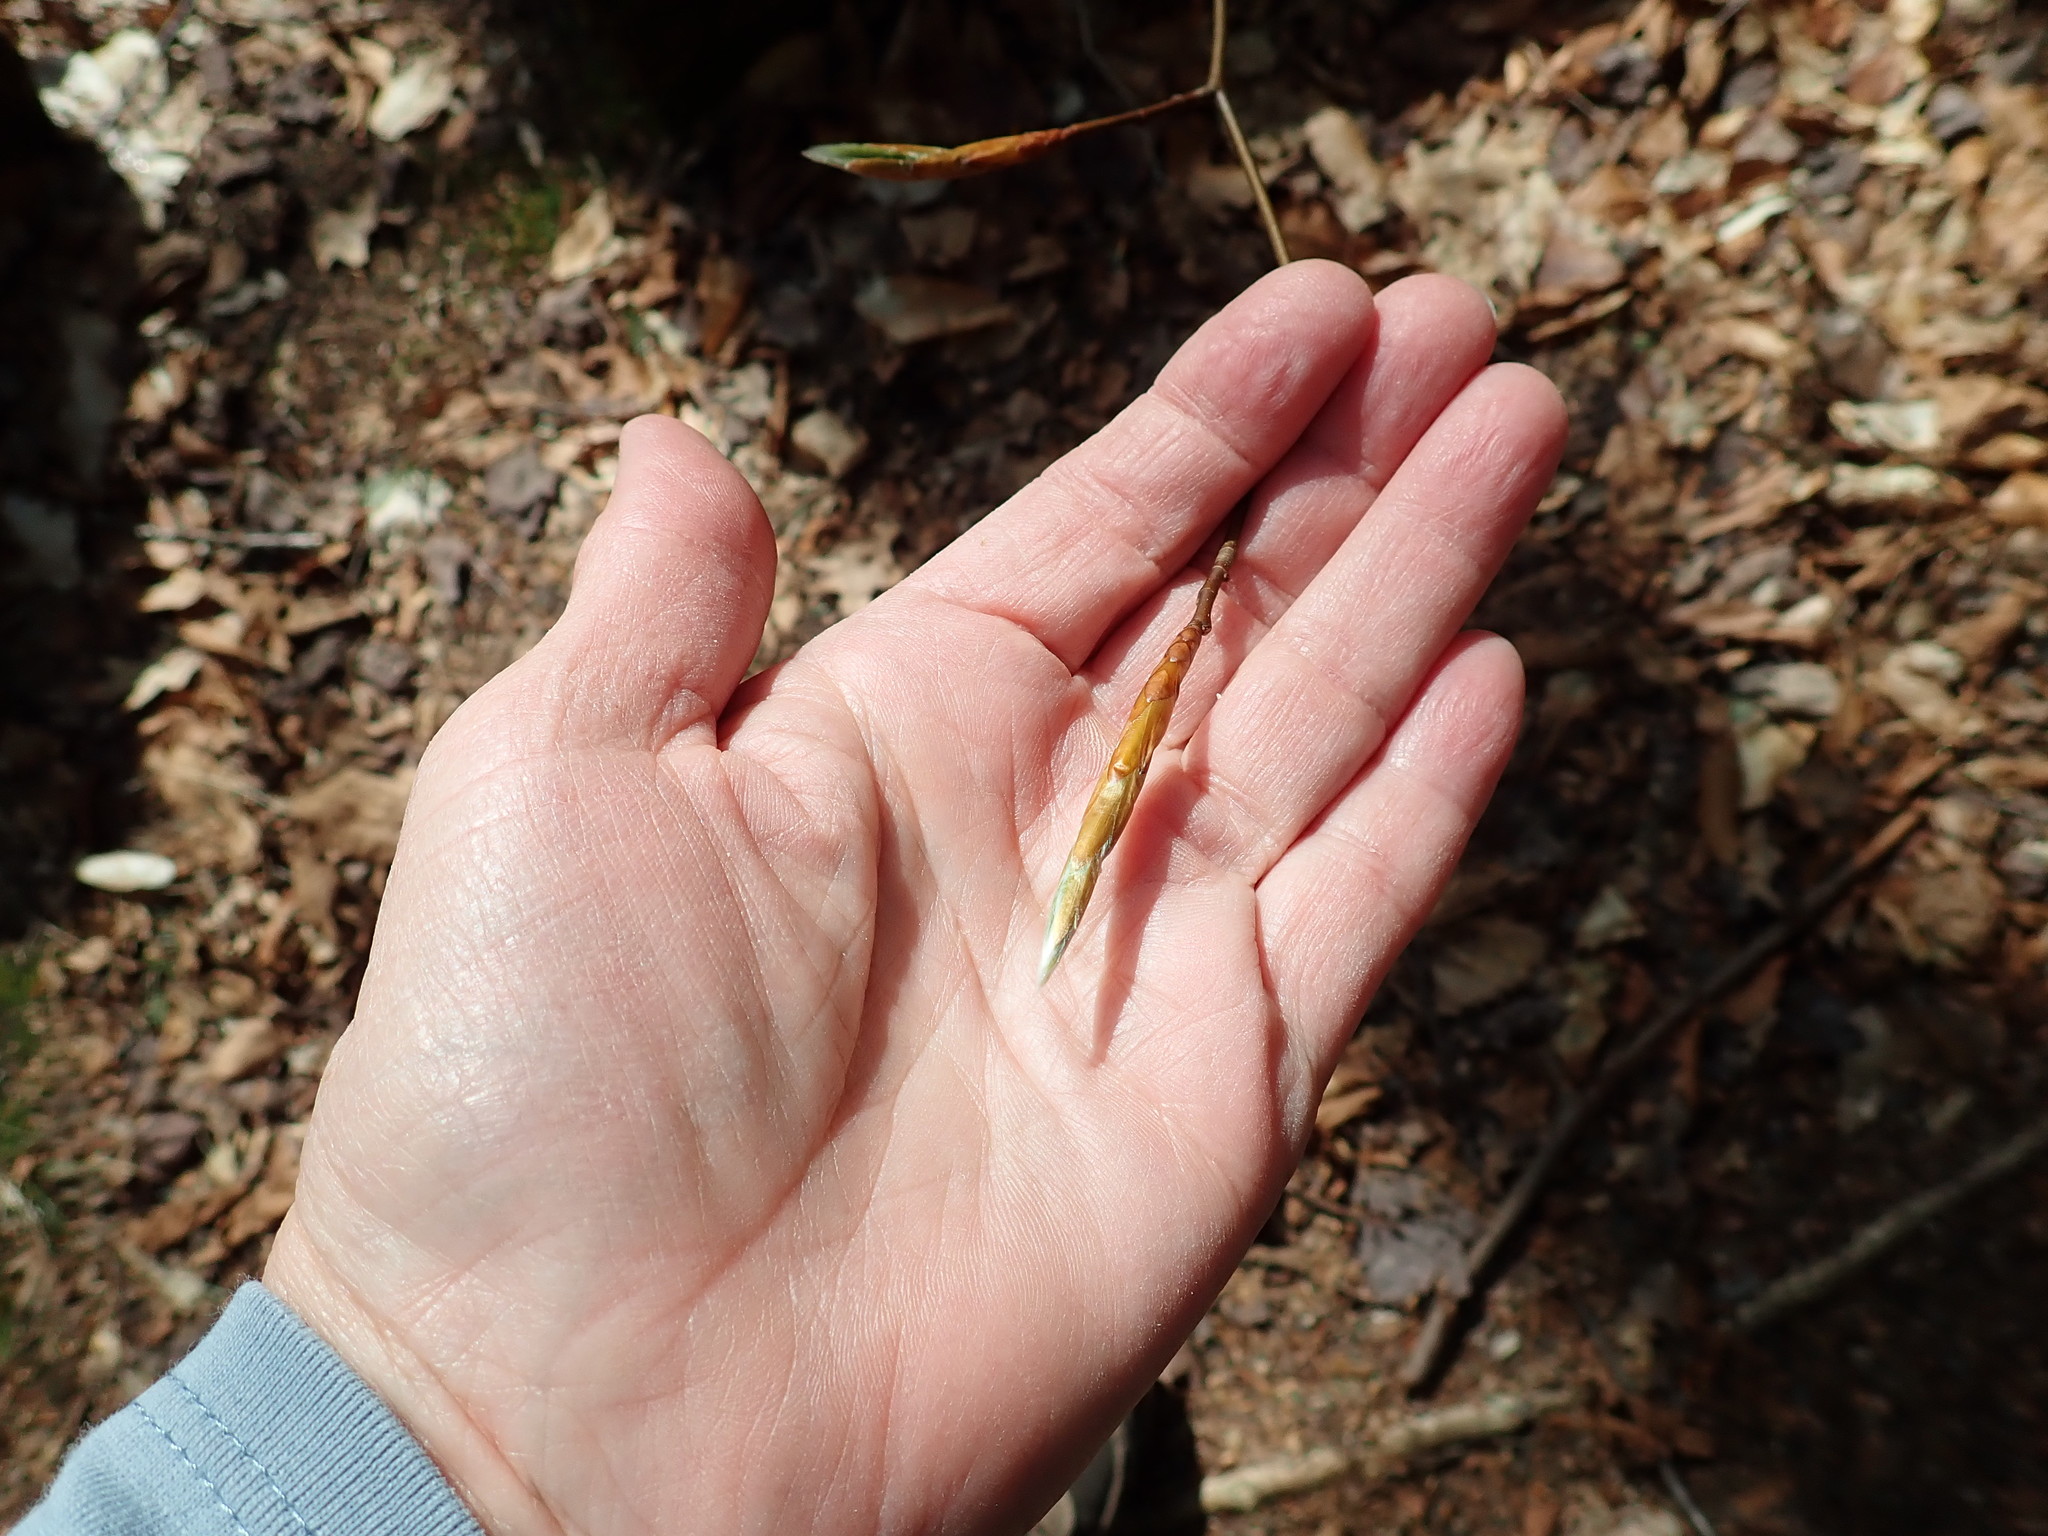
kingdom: Plantae
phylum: Tracheophyta
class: Magnoliopsida
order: Fagales
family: Fagaceae
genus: Fagus
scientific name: Fagus grandifolia
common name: American beech
